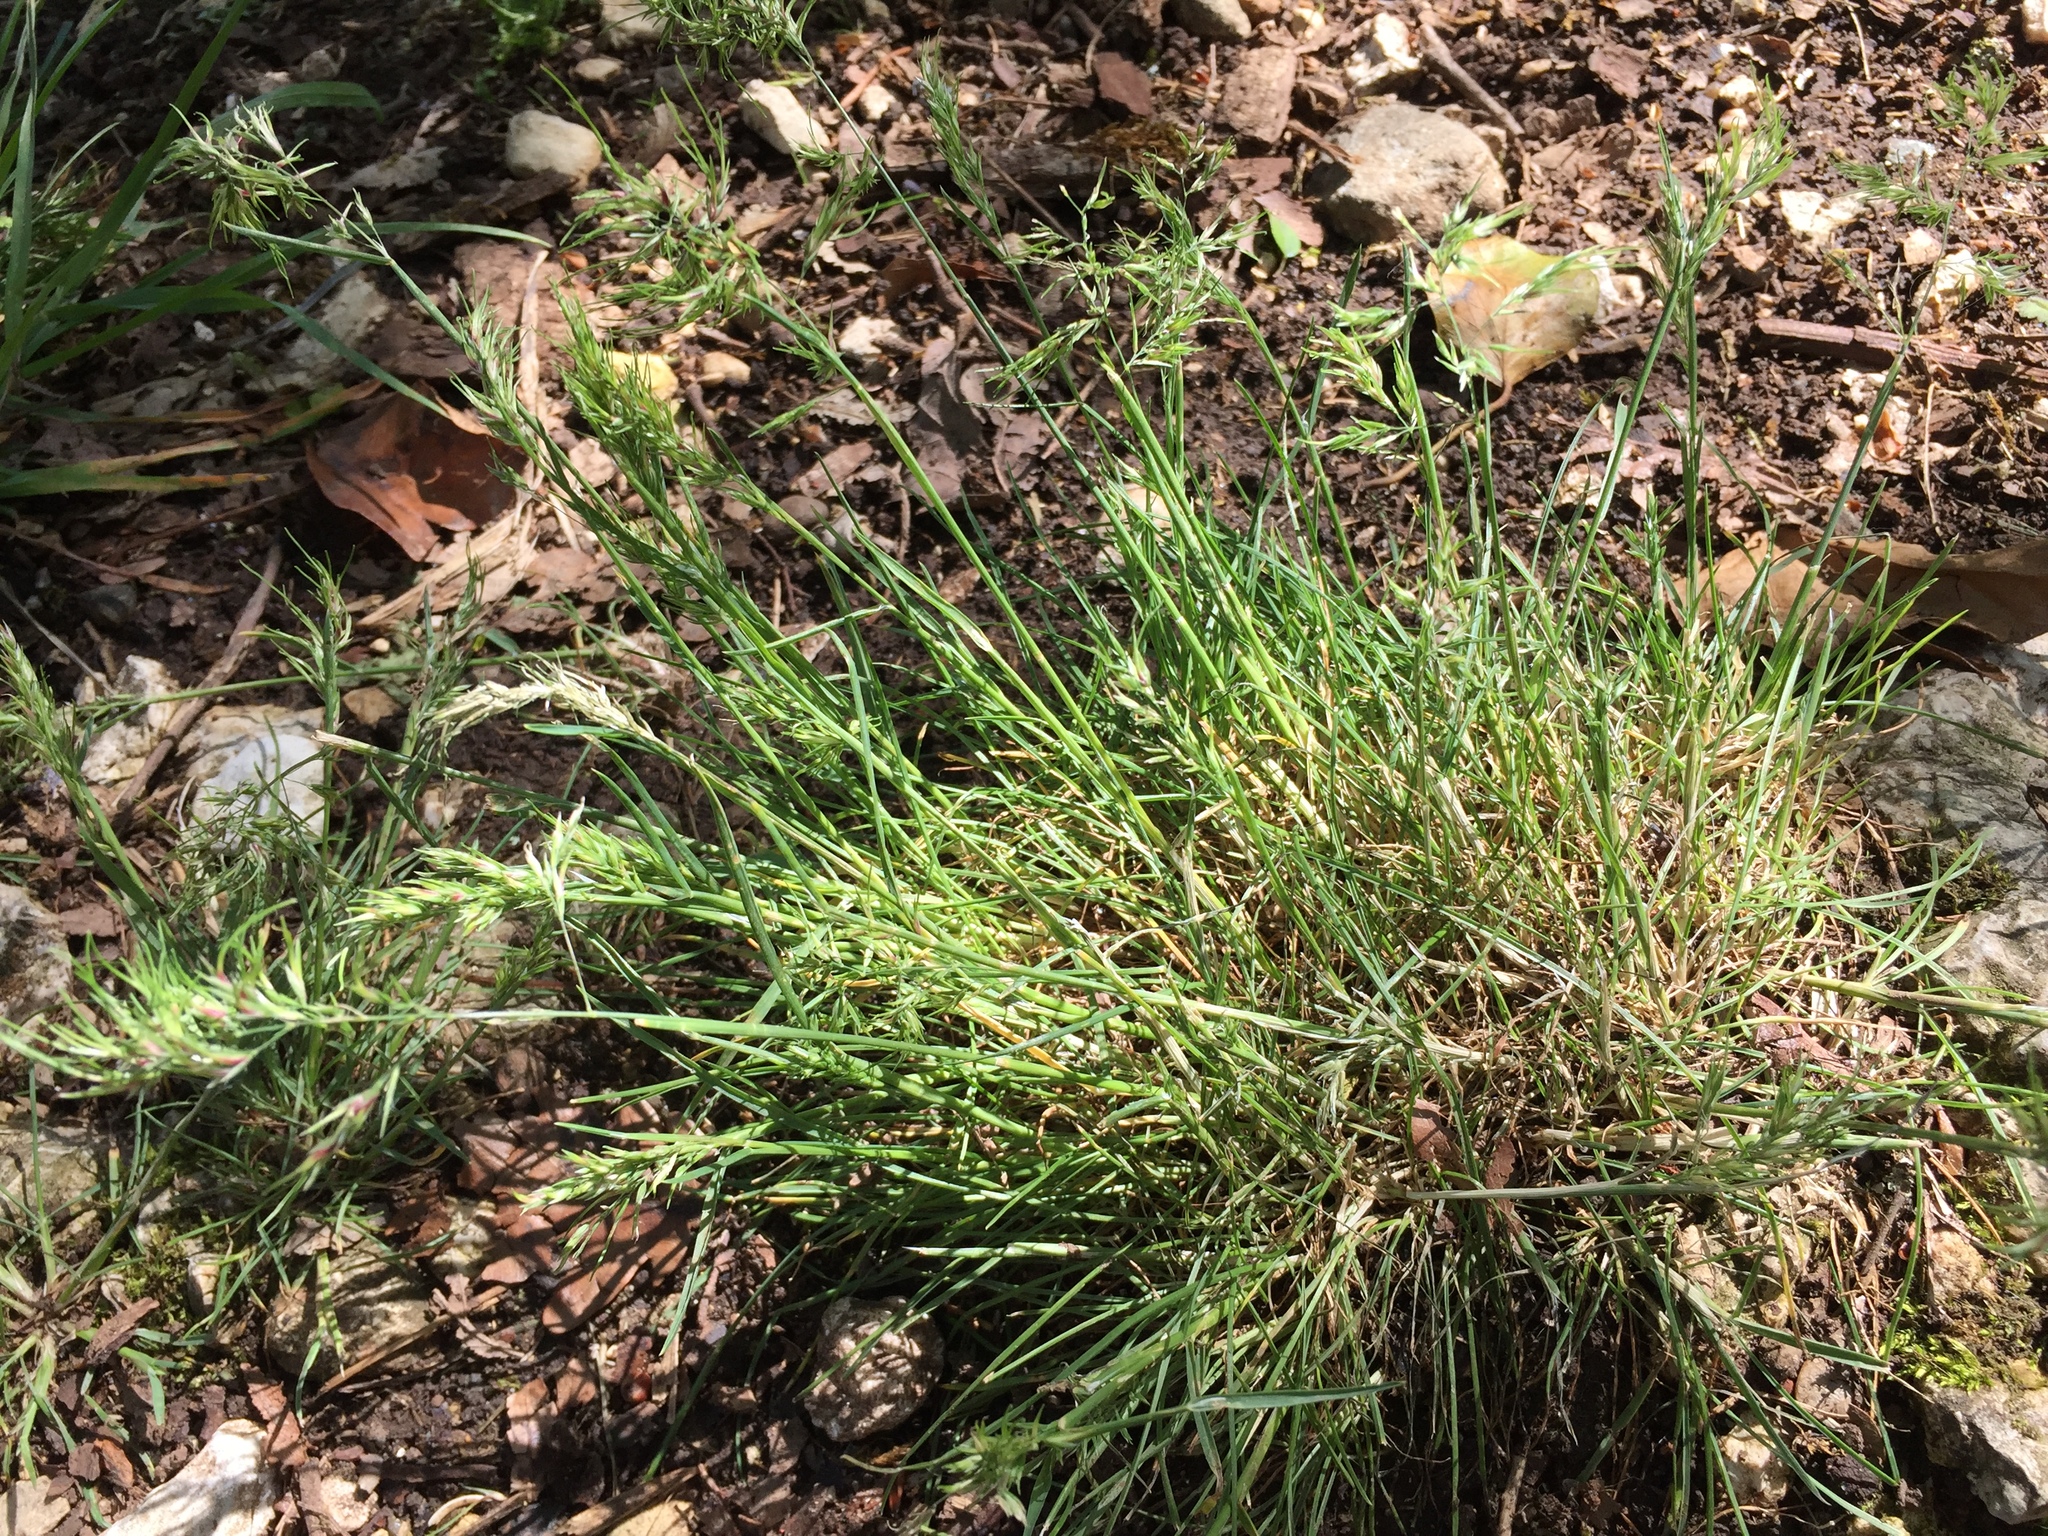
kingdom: Plantae
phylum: Tracheophyta
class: Liliopsida
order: Poales
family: Poaceae
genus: Poa
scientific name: Poa bulbosa
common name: Bulbous bluegrass
